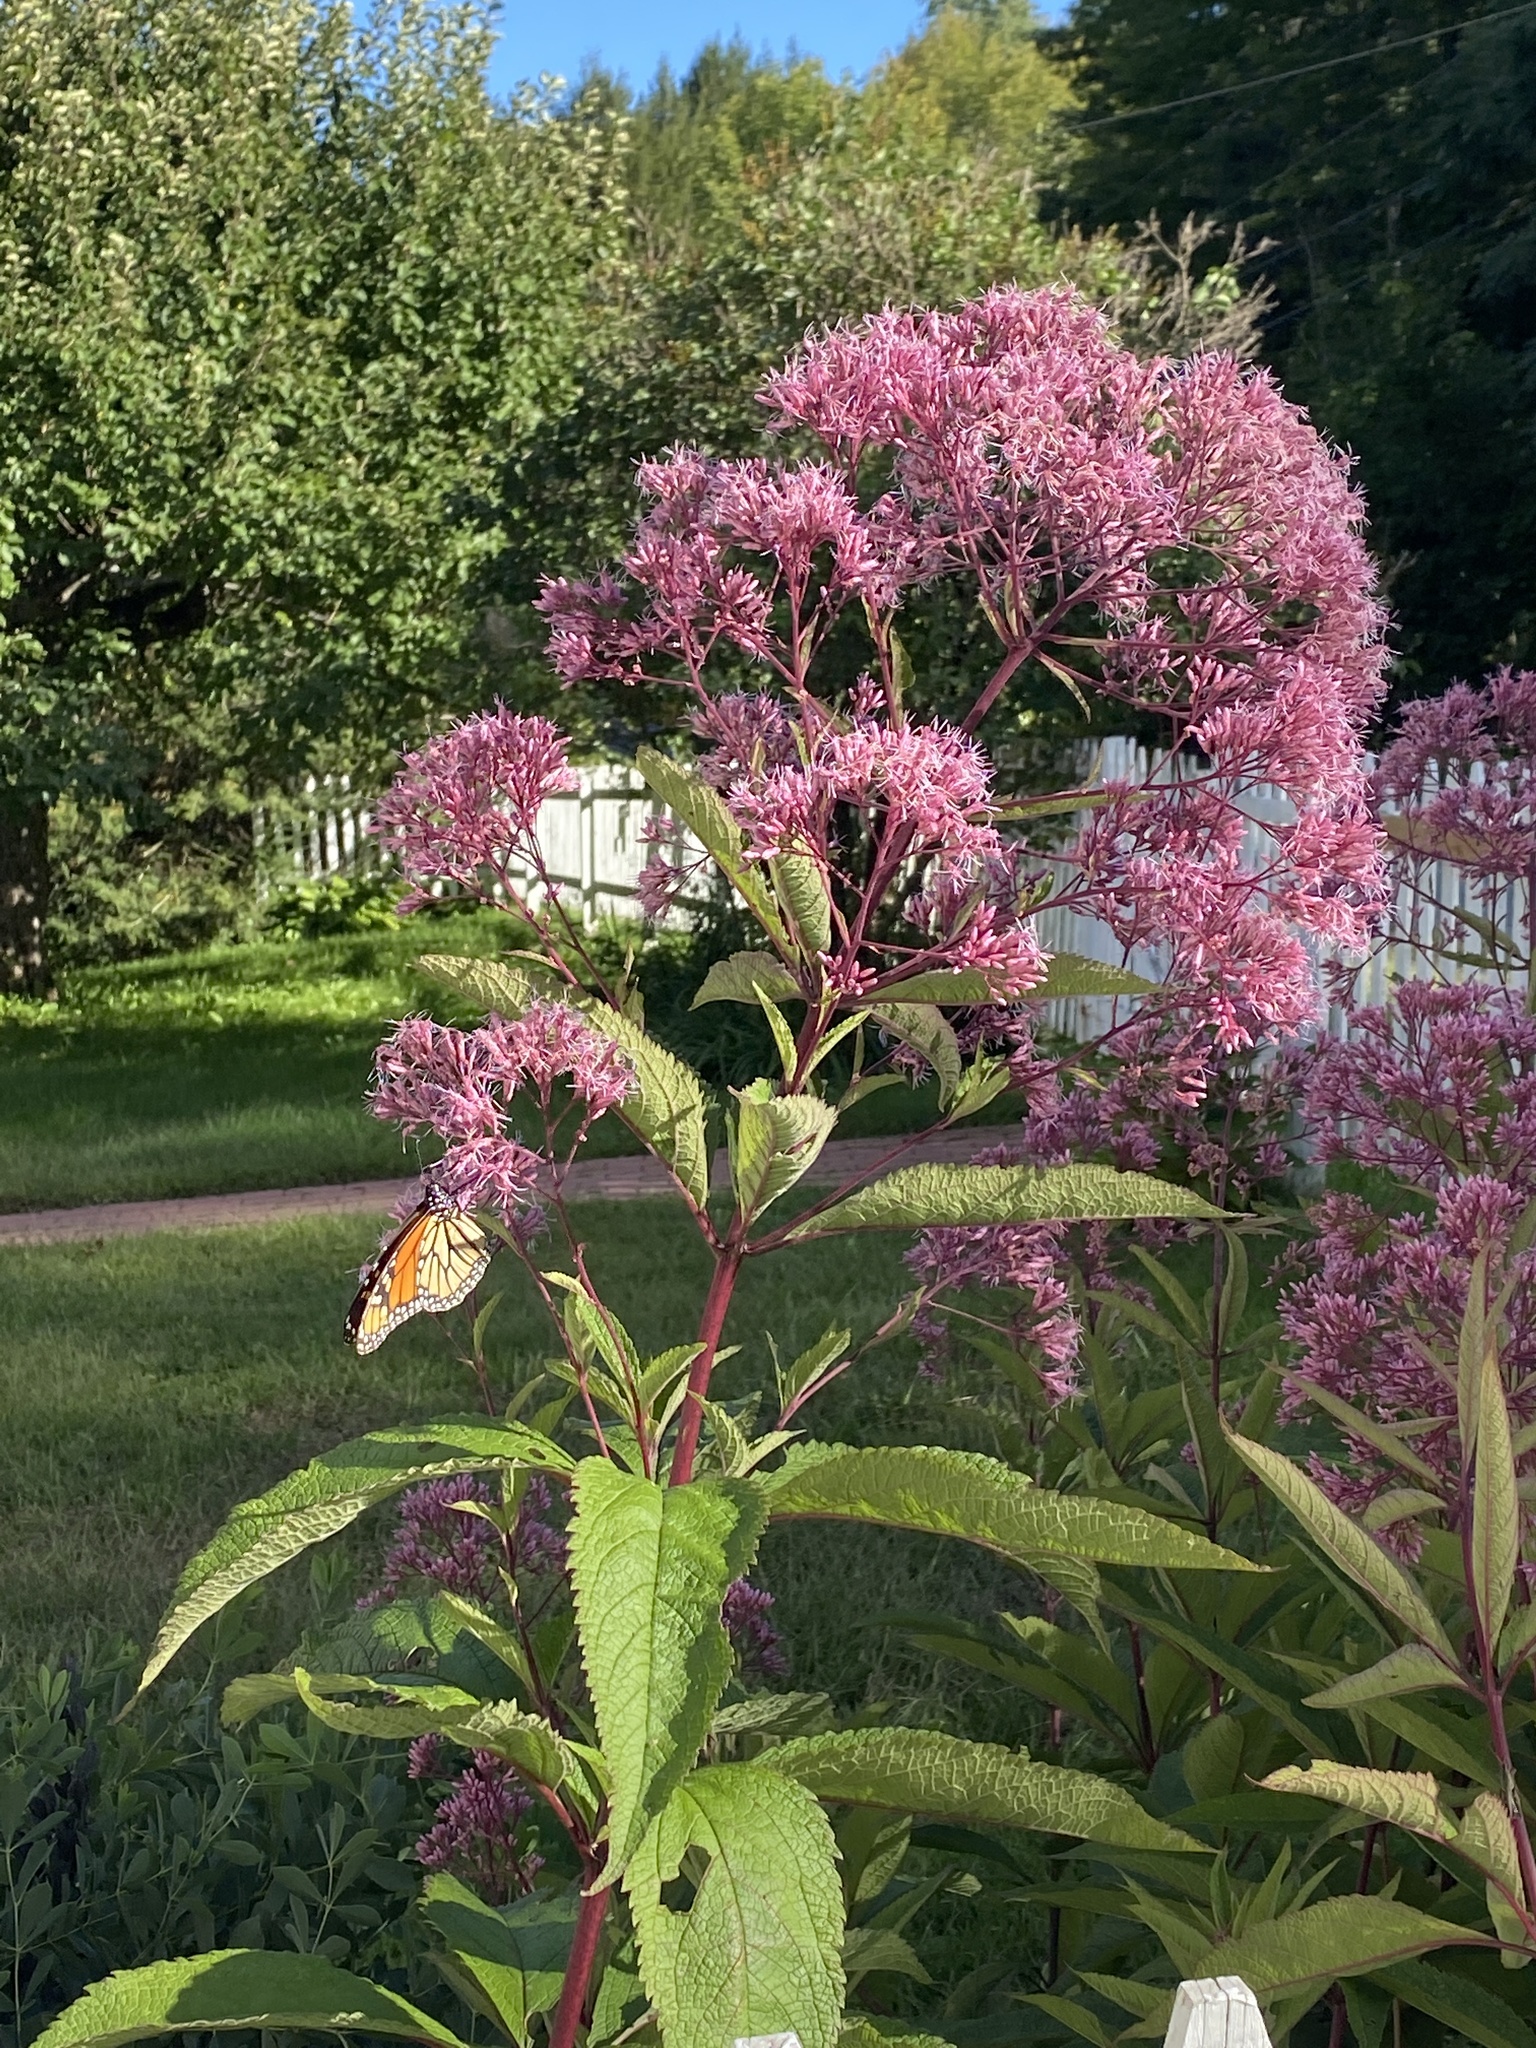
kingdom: Animalia
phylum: Arthropoda
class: Insecta
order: Lepidoptera
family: Nymphalidae
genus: Danaus
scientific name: Danaus plexippus
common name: Monarch
